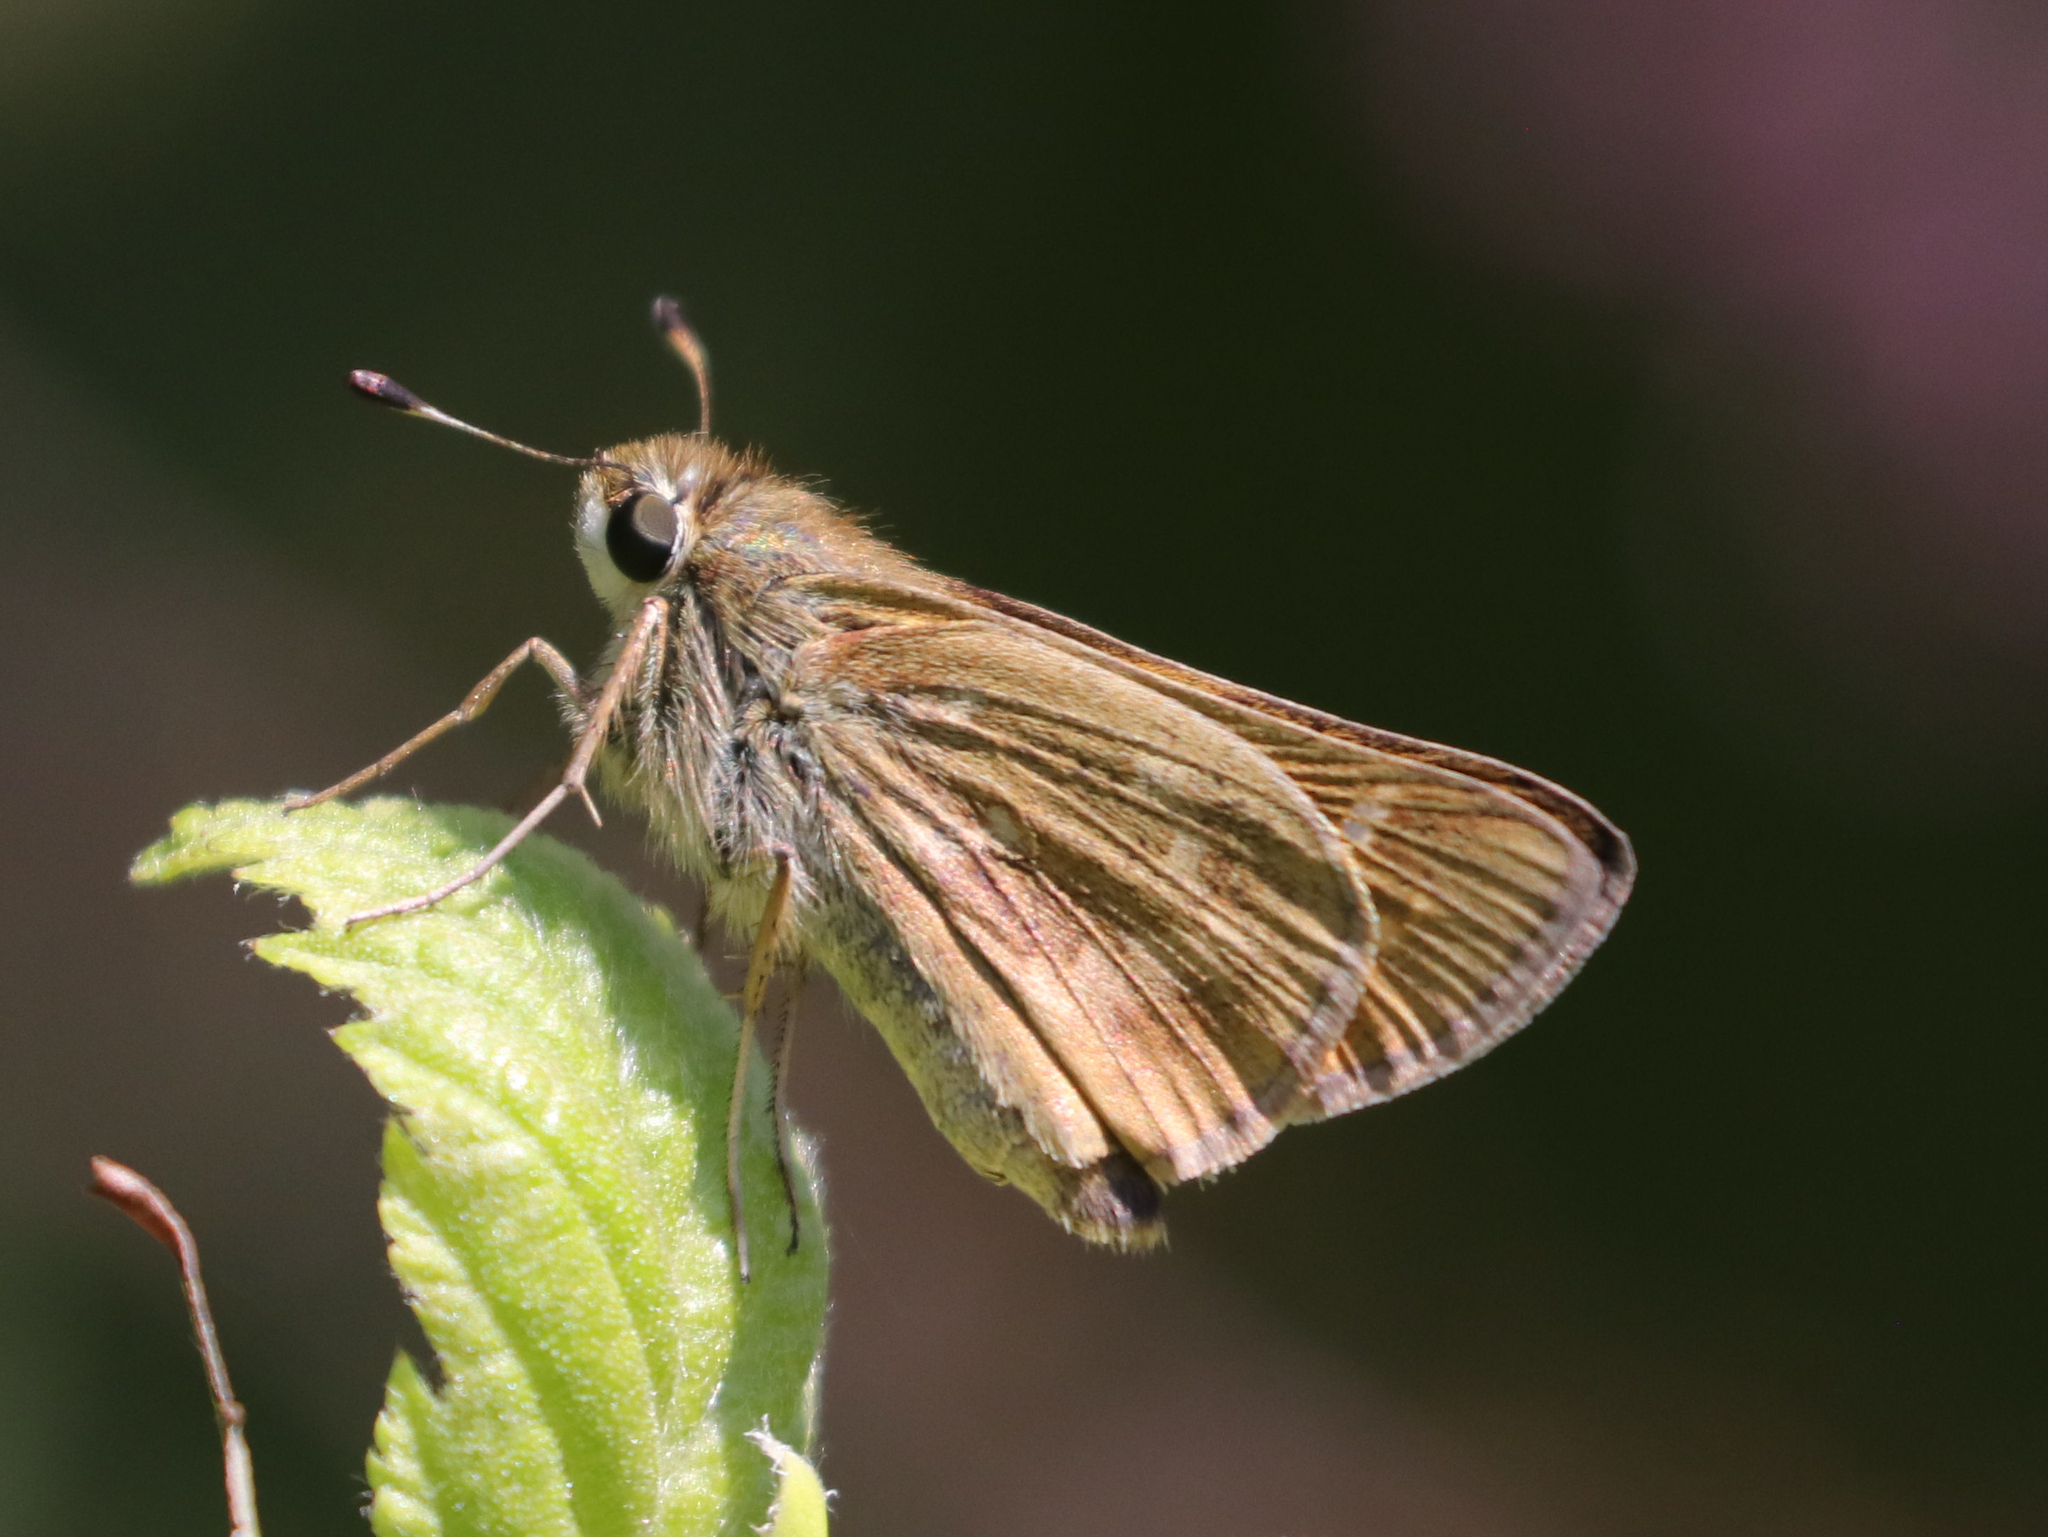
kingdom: Animalia
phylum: Arthropoda
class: Insecta
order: Lepidoptera
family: Hesperiidae
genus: Atalopedes
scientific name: Atalopedes
